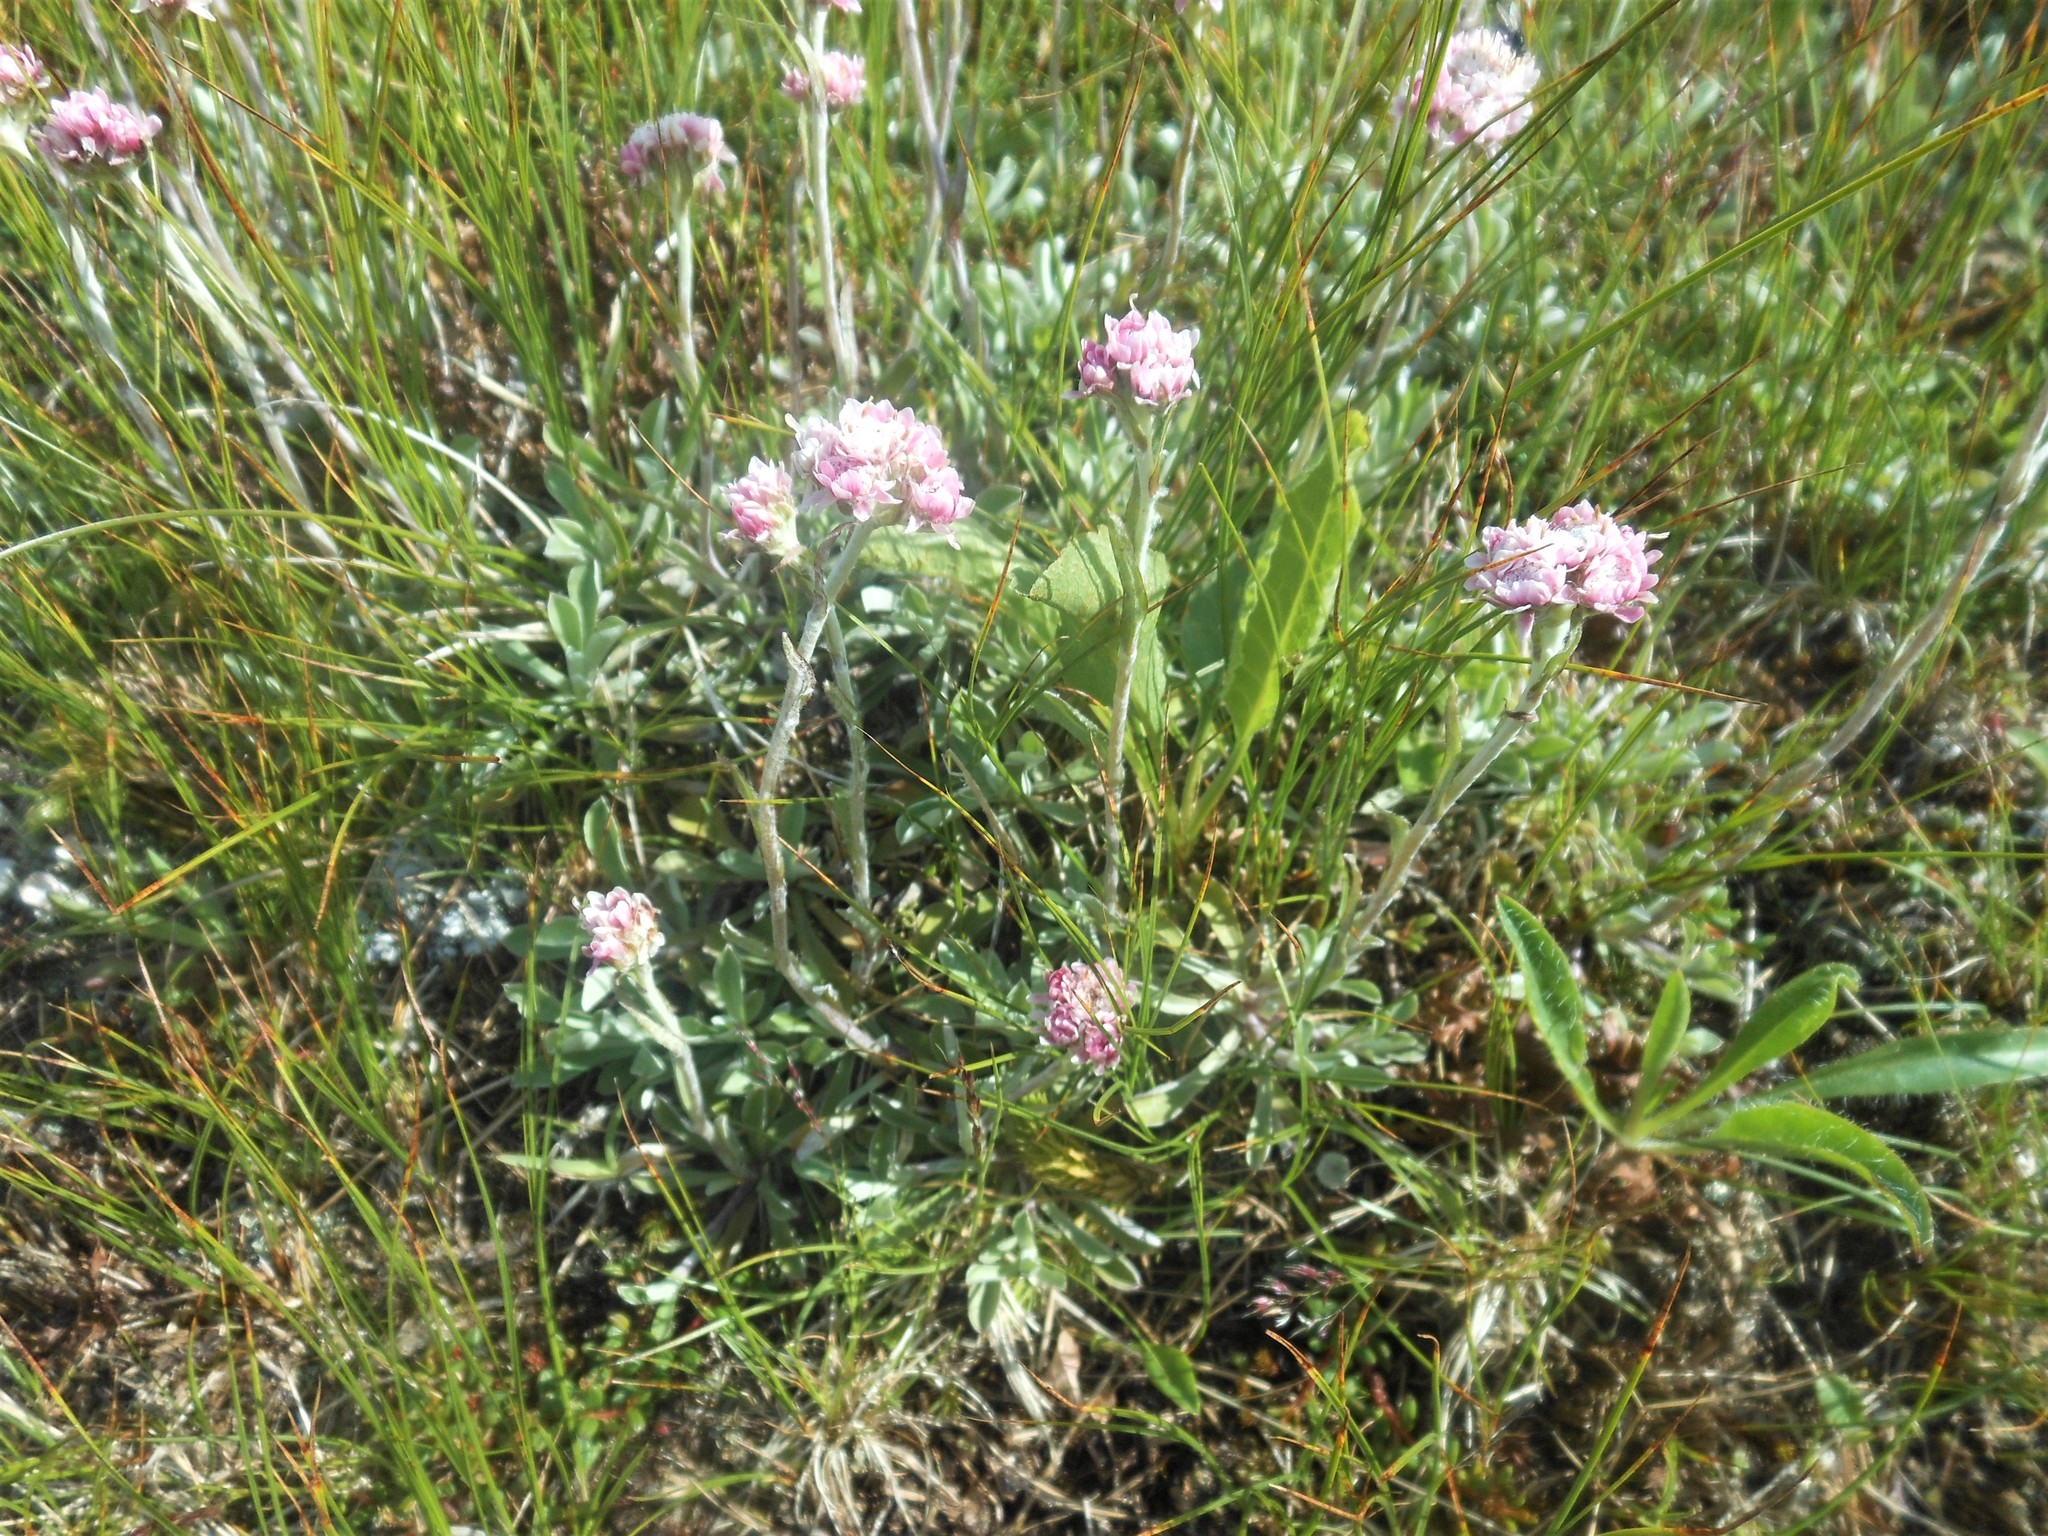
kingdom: Plantae
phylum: Tracheophyta
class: Magnoliopsida
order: Asterales
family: Asteraceae
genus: Antennaria
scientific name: Antennaria dioica
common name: Mountain everlasting
